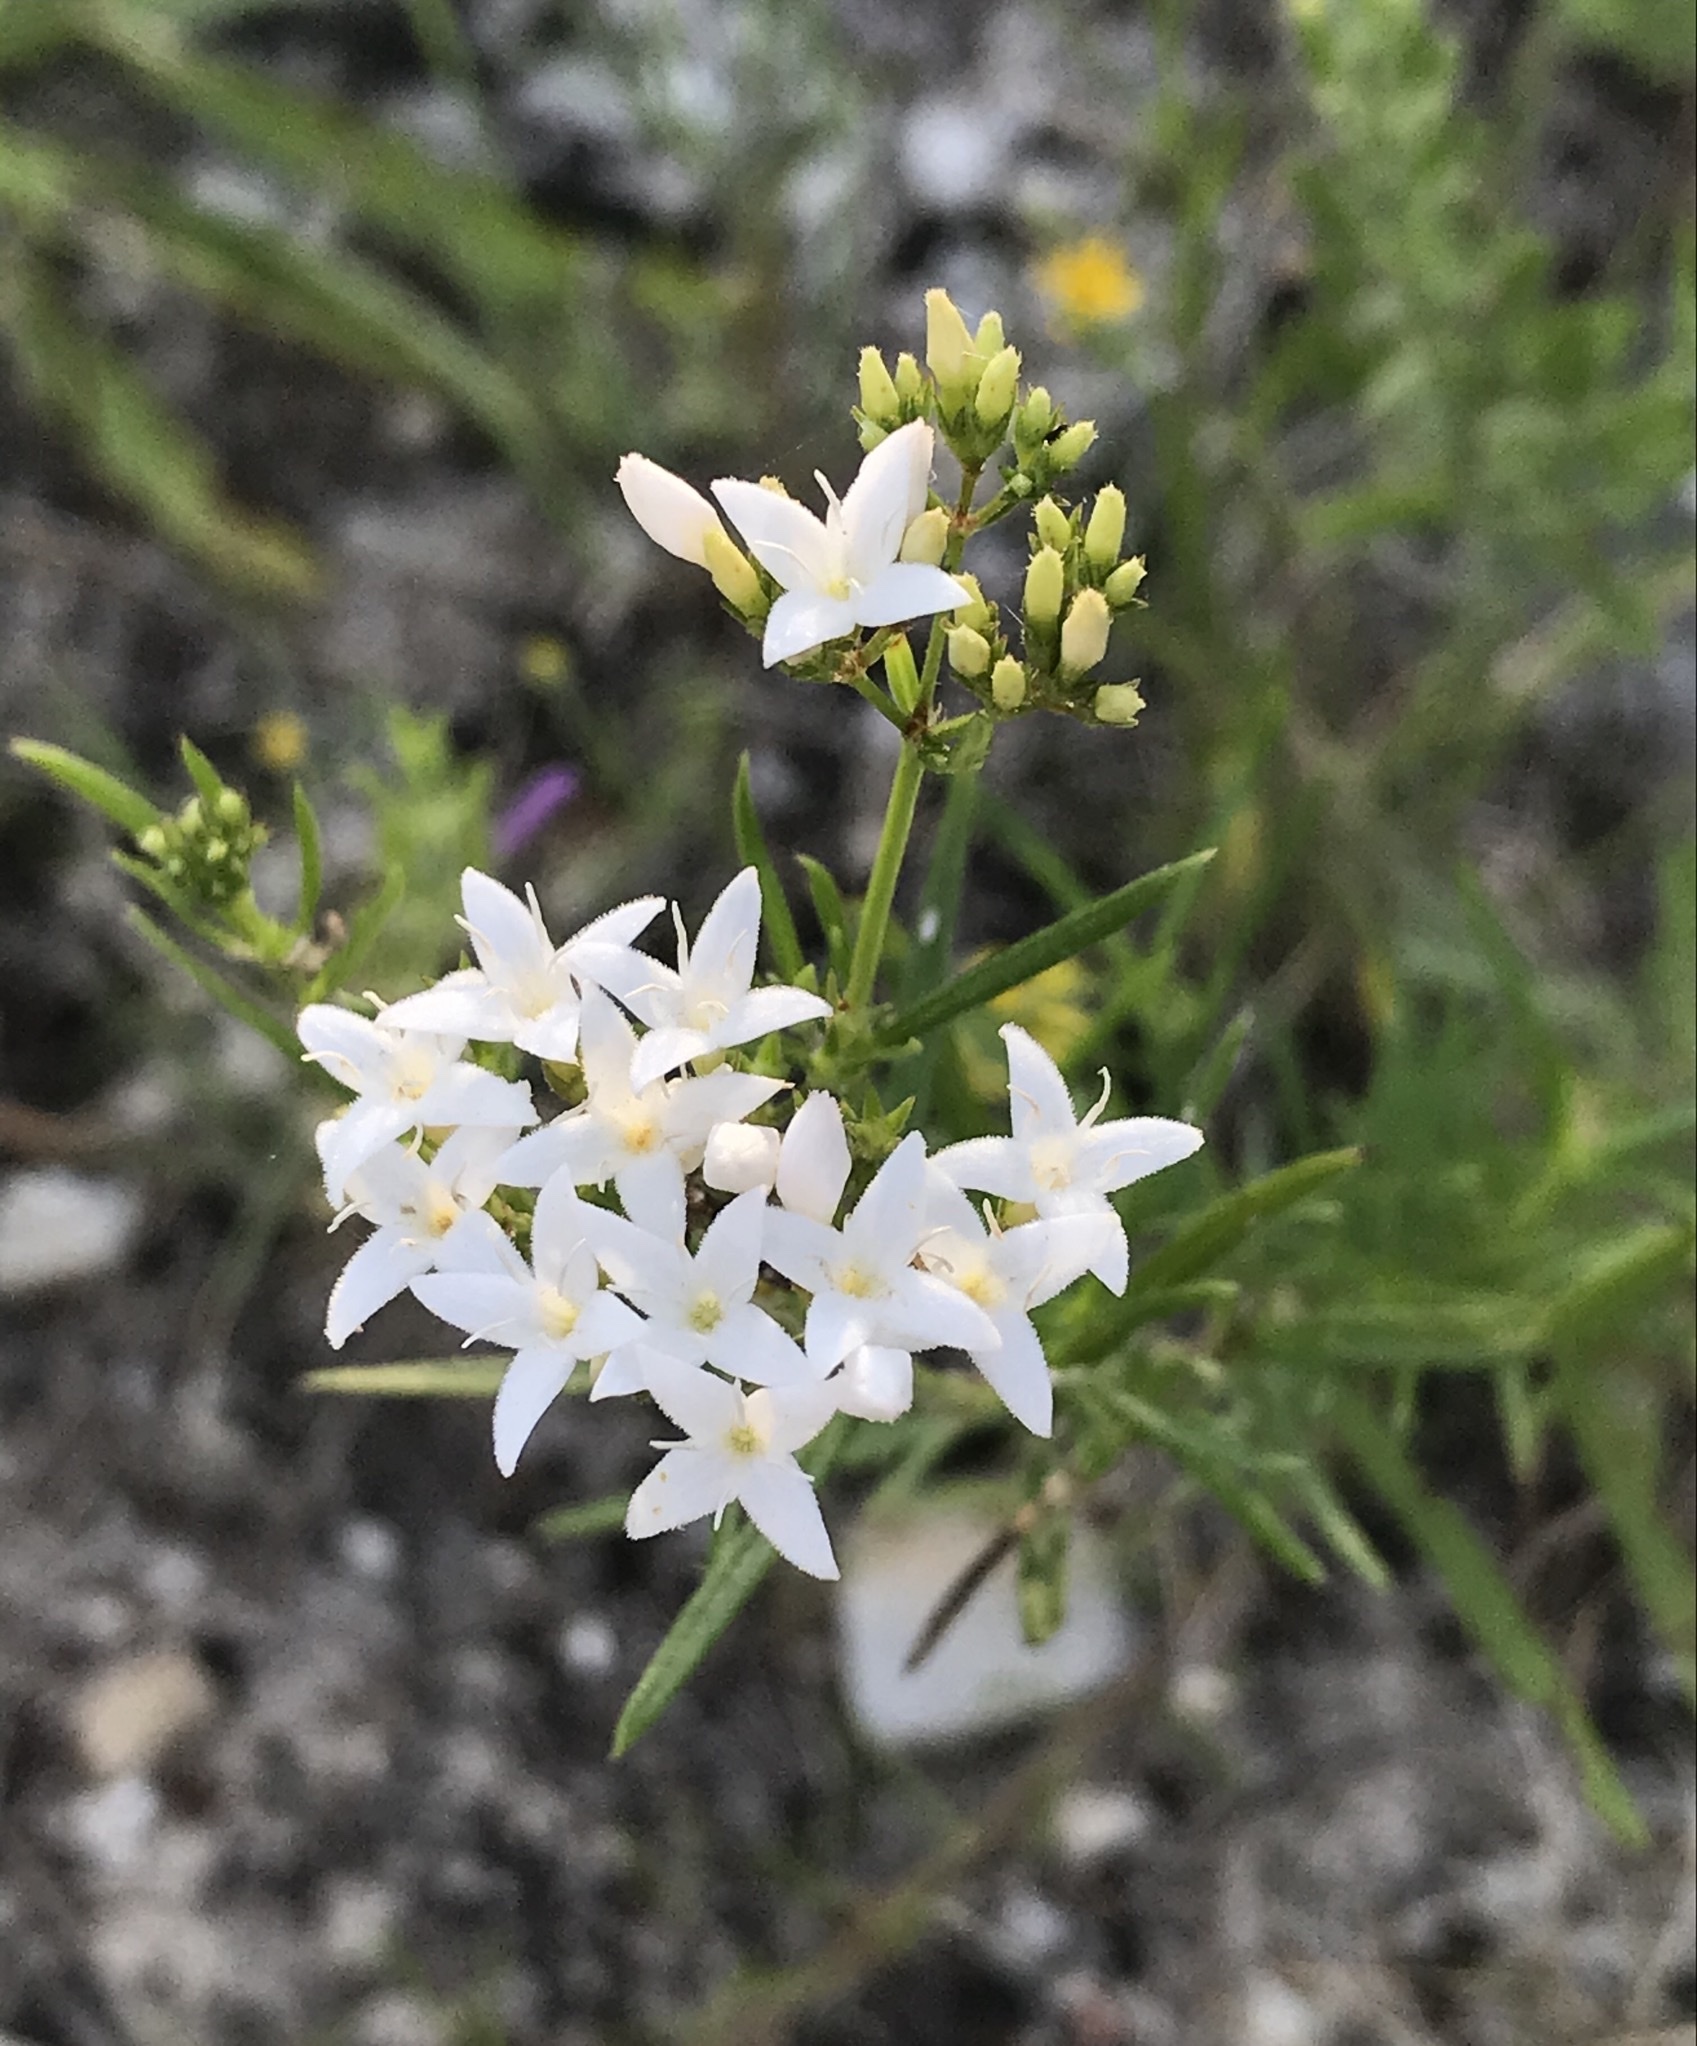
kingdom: Plantae
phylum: Tracheophyta
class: Magnoliopsida
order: Gentianales
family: Rubiaceae
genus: Stenaria
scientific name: Stenaria nigricans
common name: Diamondflowers
